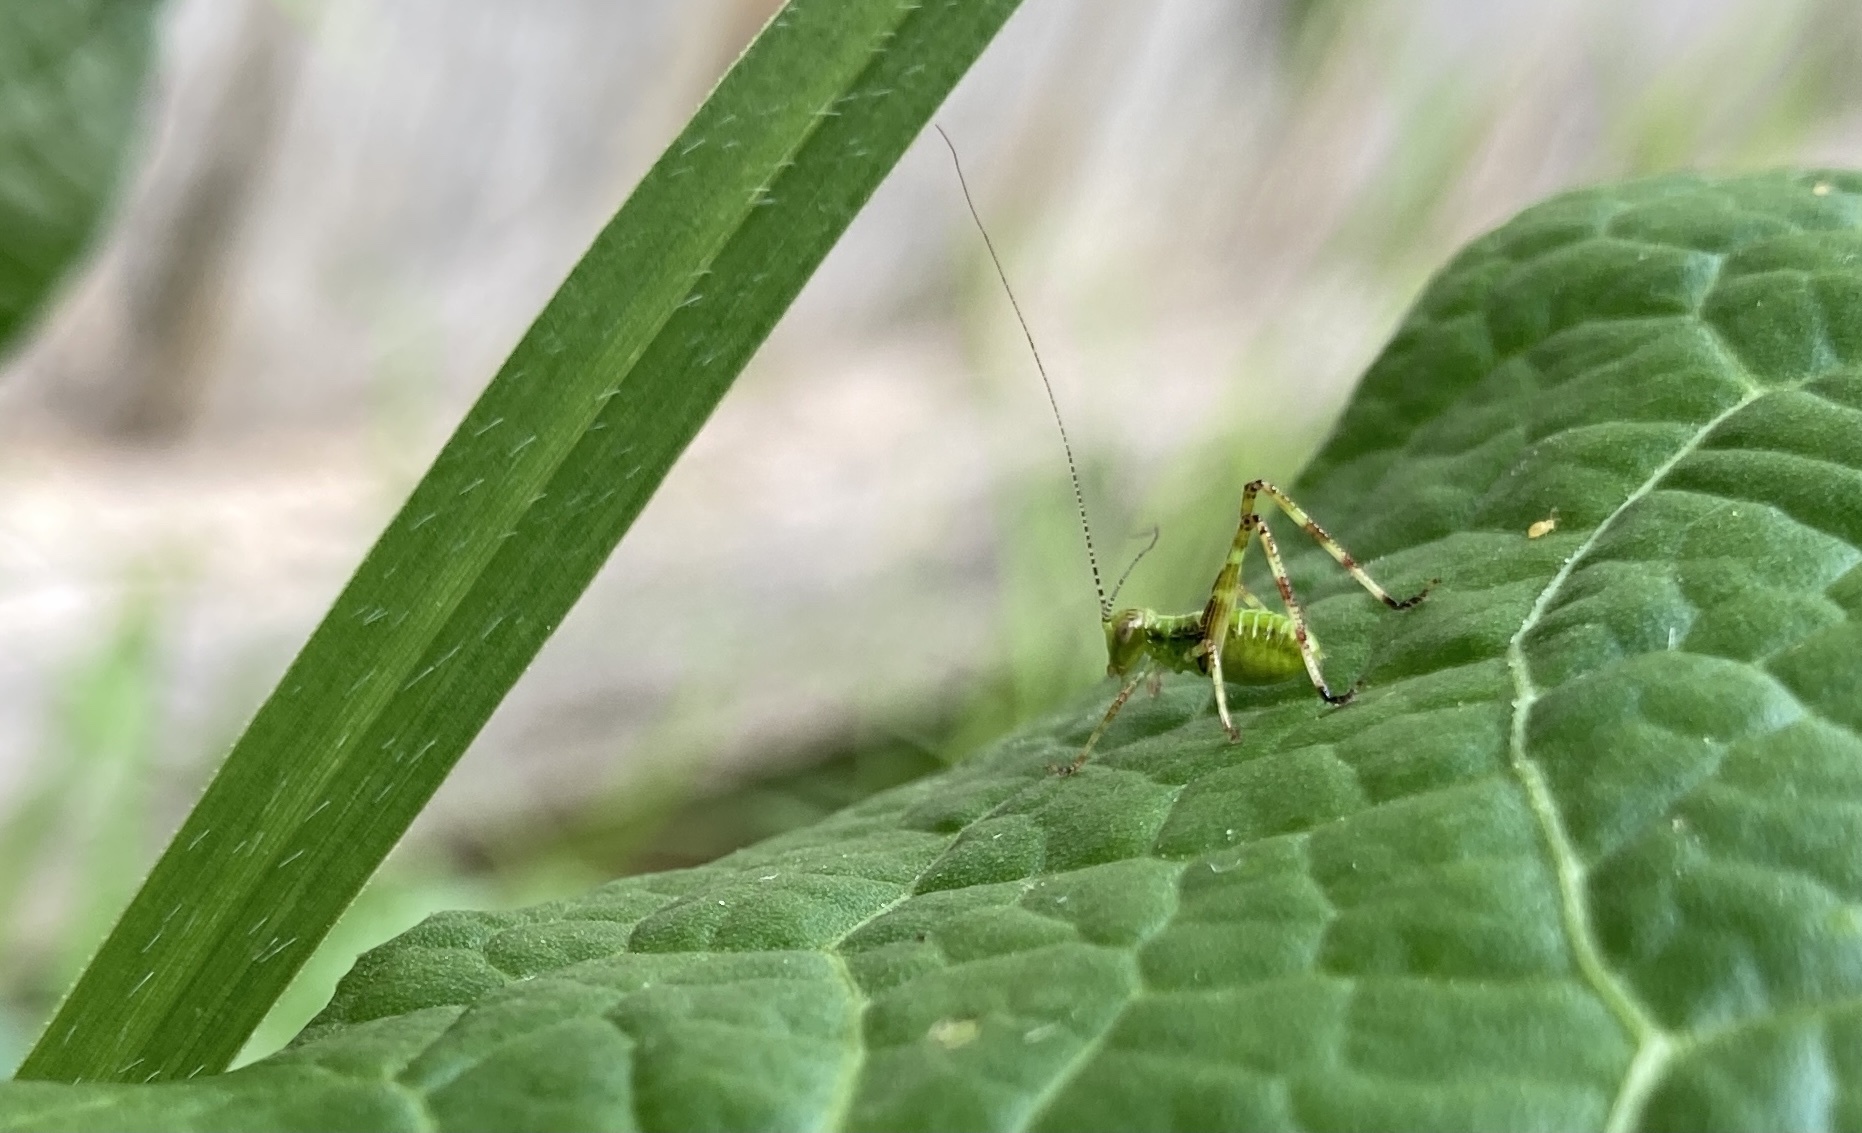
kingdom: Animalia
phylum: Arthropoda
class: Insecta
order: Orthoptera
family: Tettigoniidae
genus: Caedicia
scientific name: Caedicia simplex
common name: Common garden katydid
